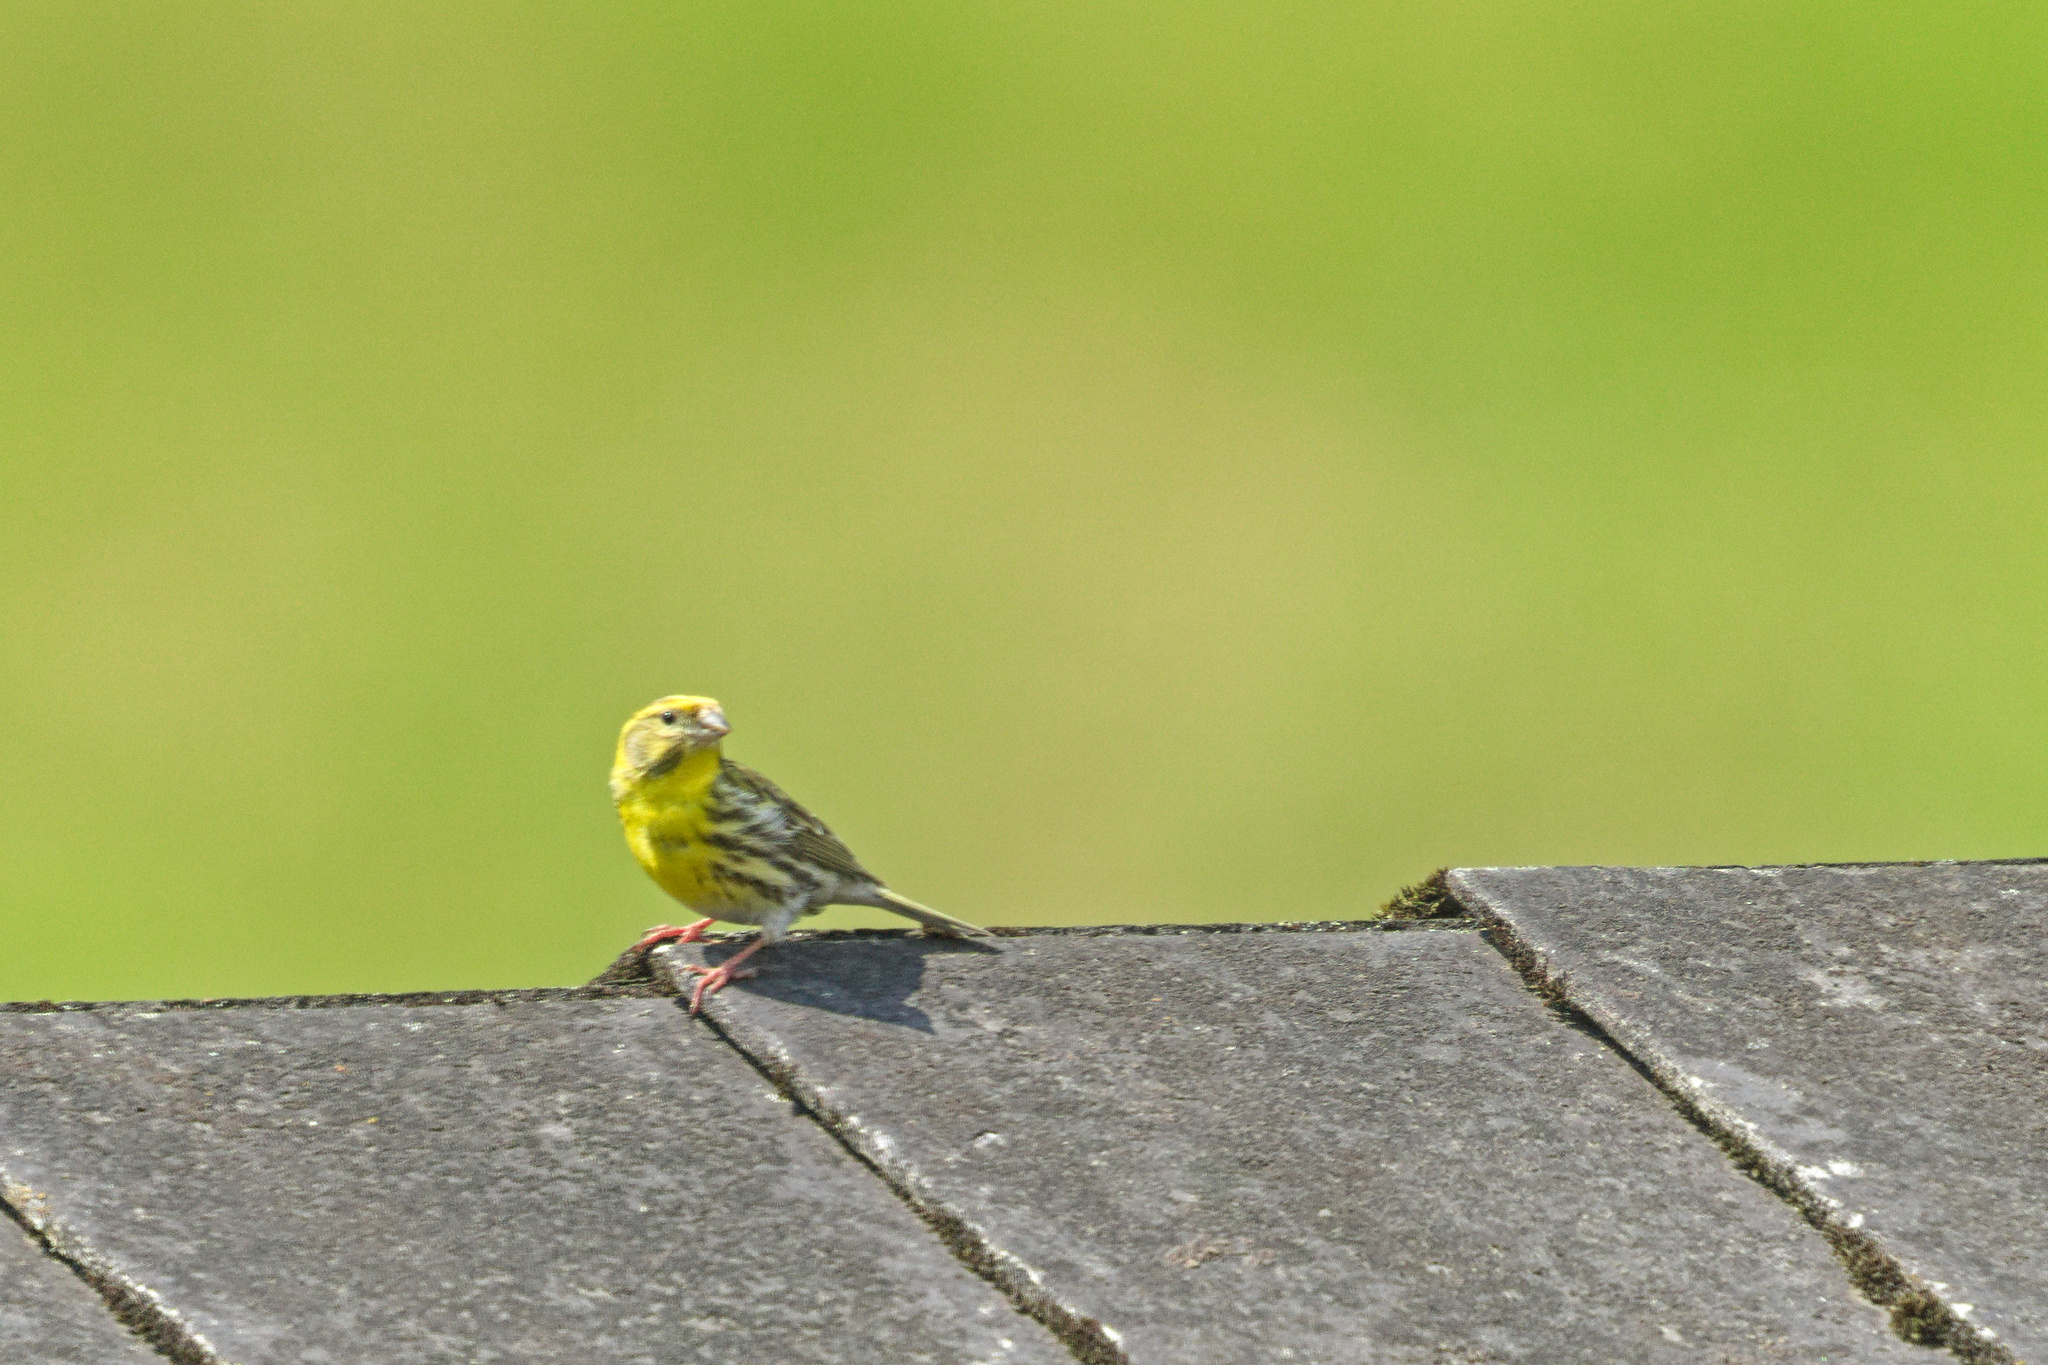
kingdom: Animalia
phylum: Chordata
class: Aves
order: Passeriformes
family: Fringillidae
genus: Serinus
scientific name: Serinus serinus
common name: European serin
